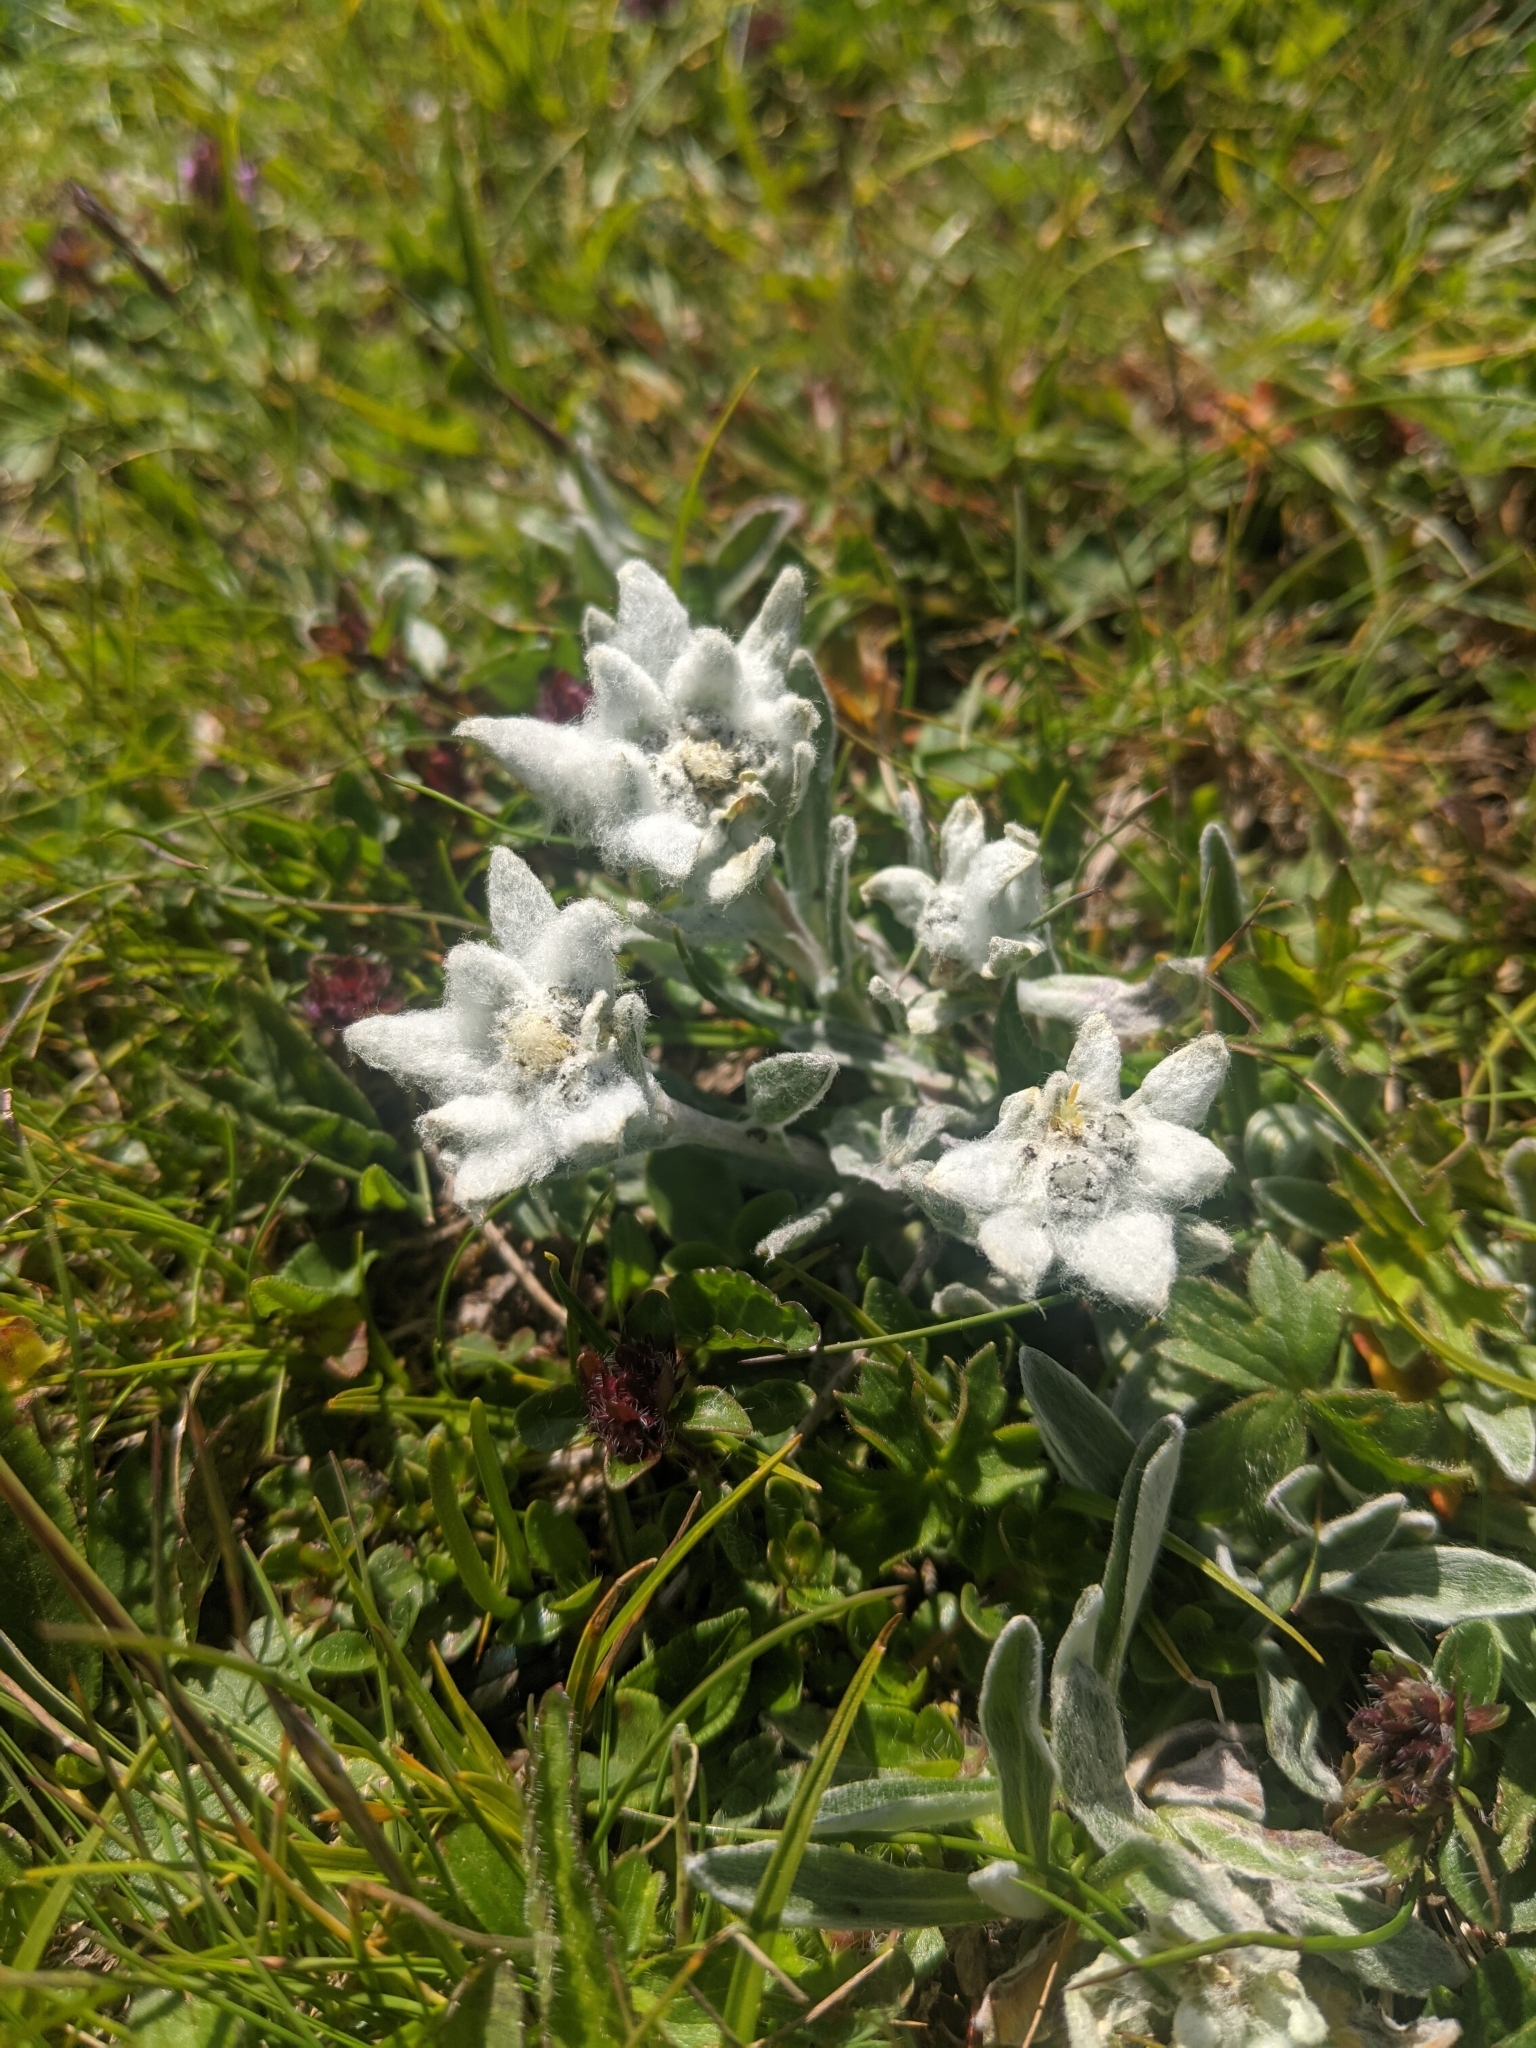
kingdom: Plantae
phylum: Tracheophyta
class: Magnoliopsida
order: Asterales
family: Asteraceae
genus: Leontopodium
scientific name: Leontopodium nivale
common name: Edelweiss
